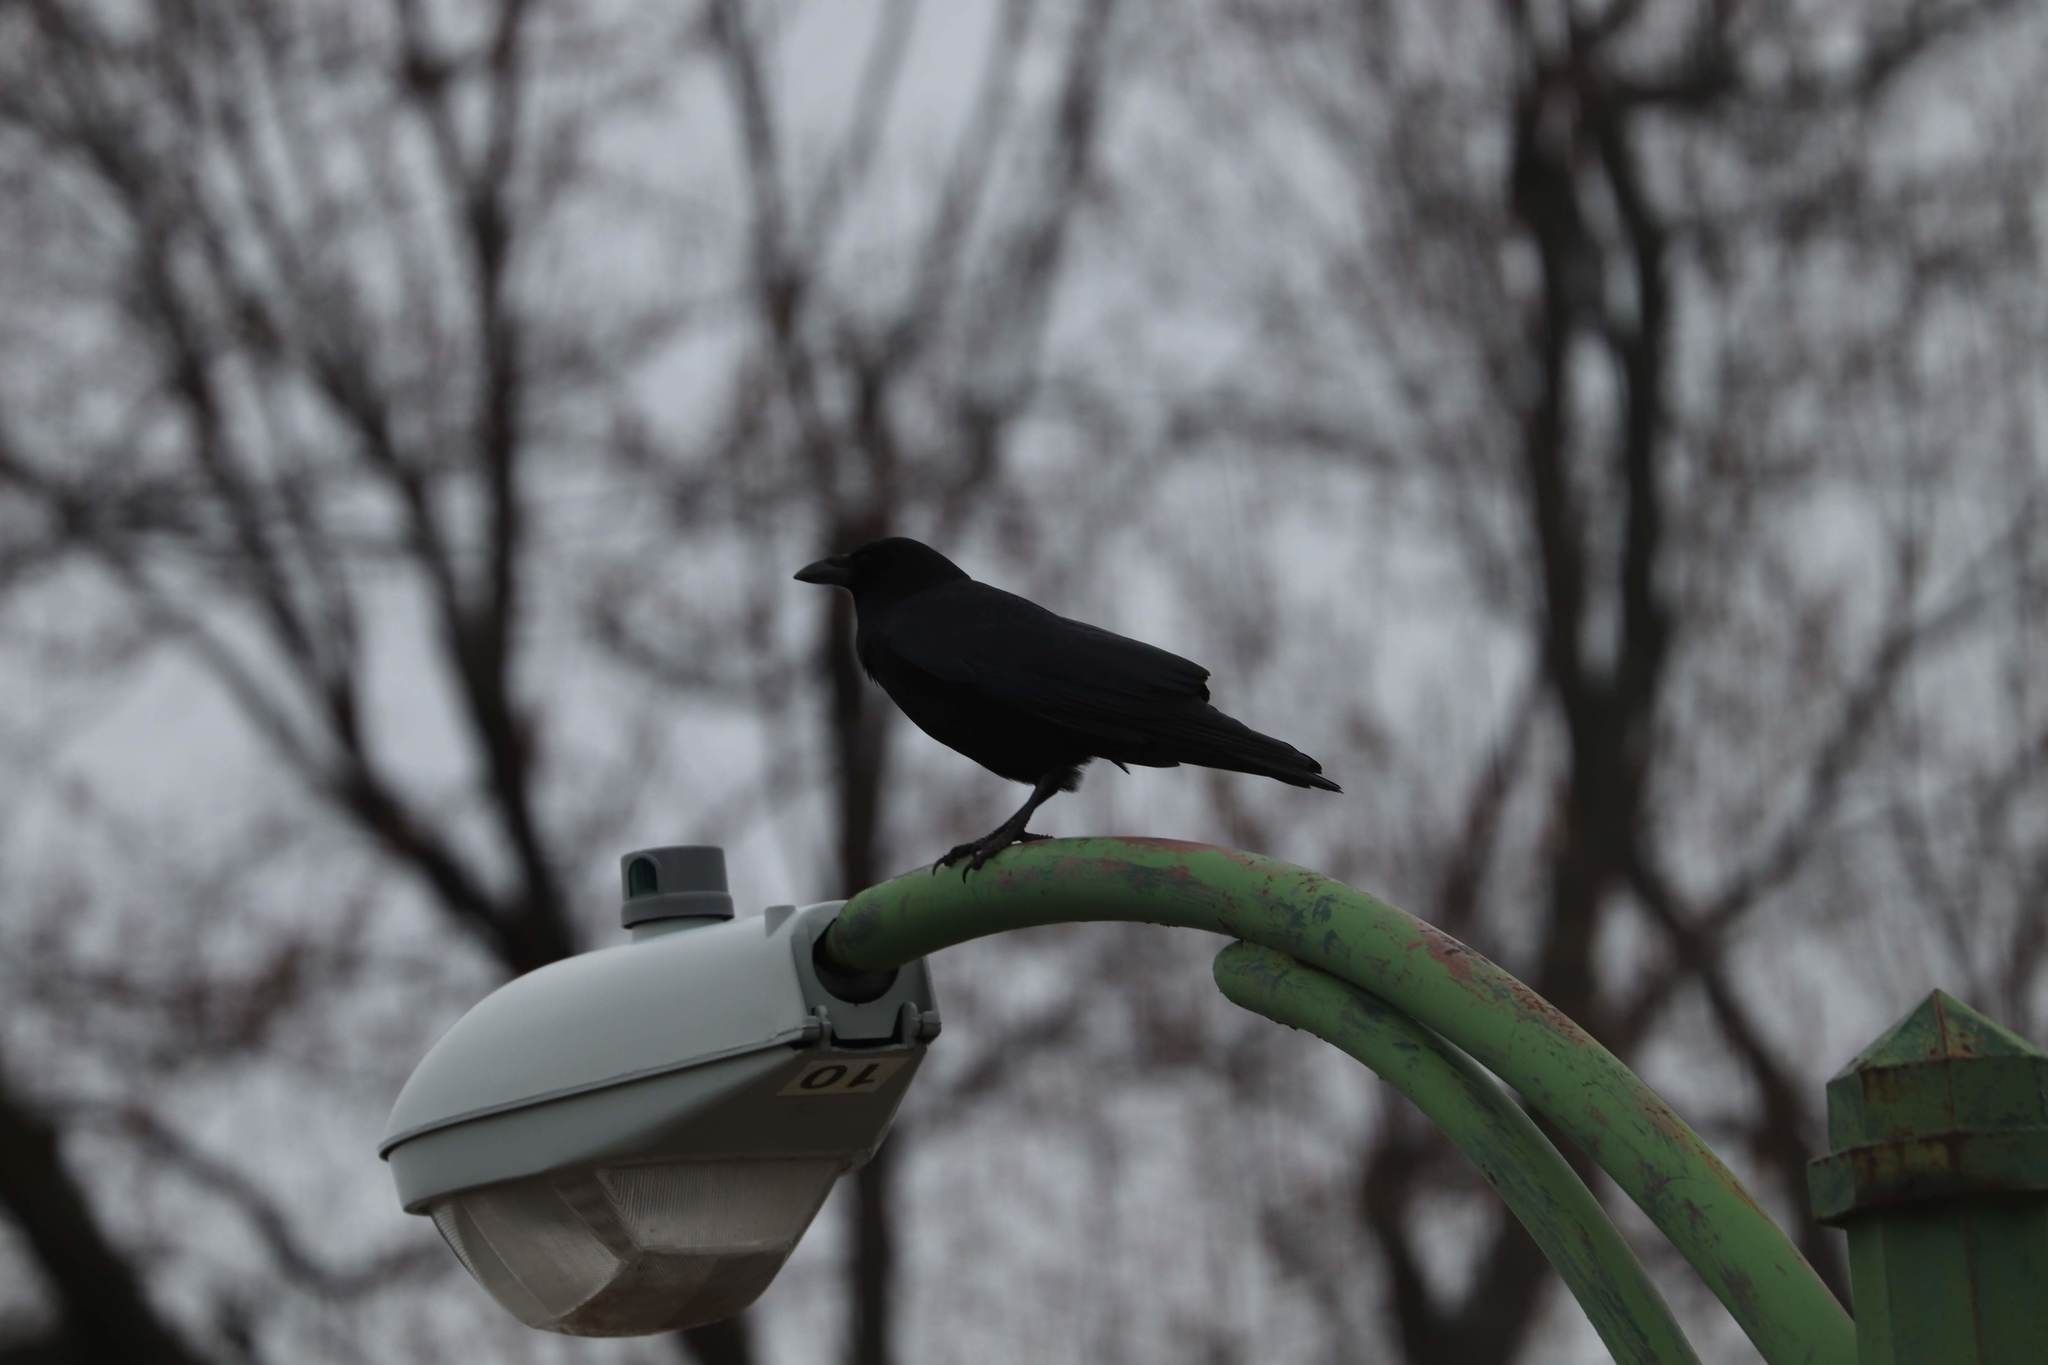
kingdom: Animalia
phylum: Chordata
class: Aves
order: Passeriformes
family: Corvidae
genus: Corvus
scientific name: Corvus corax
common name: Common raven
